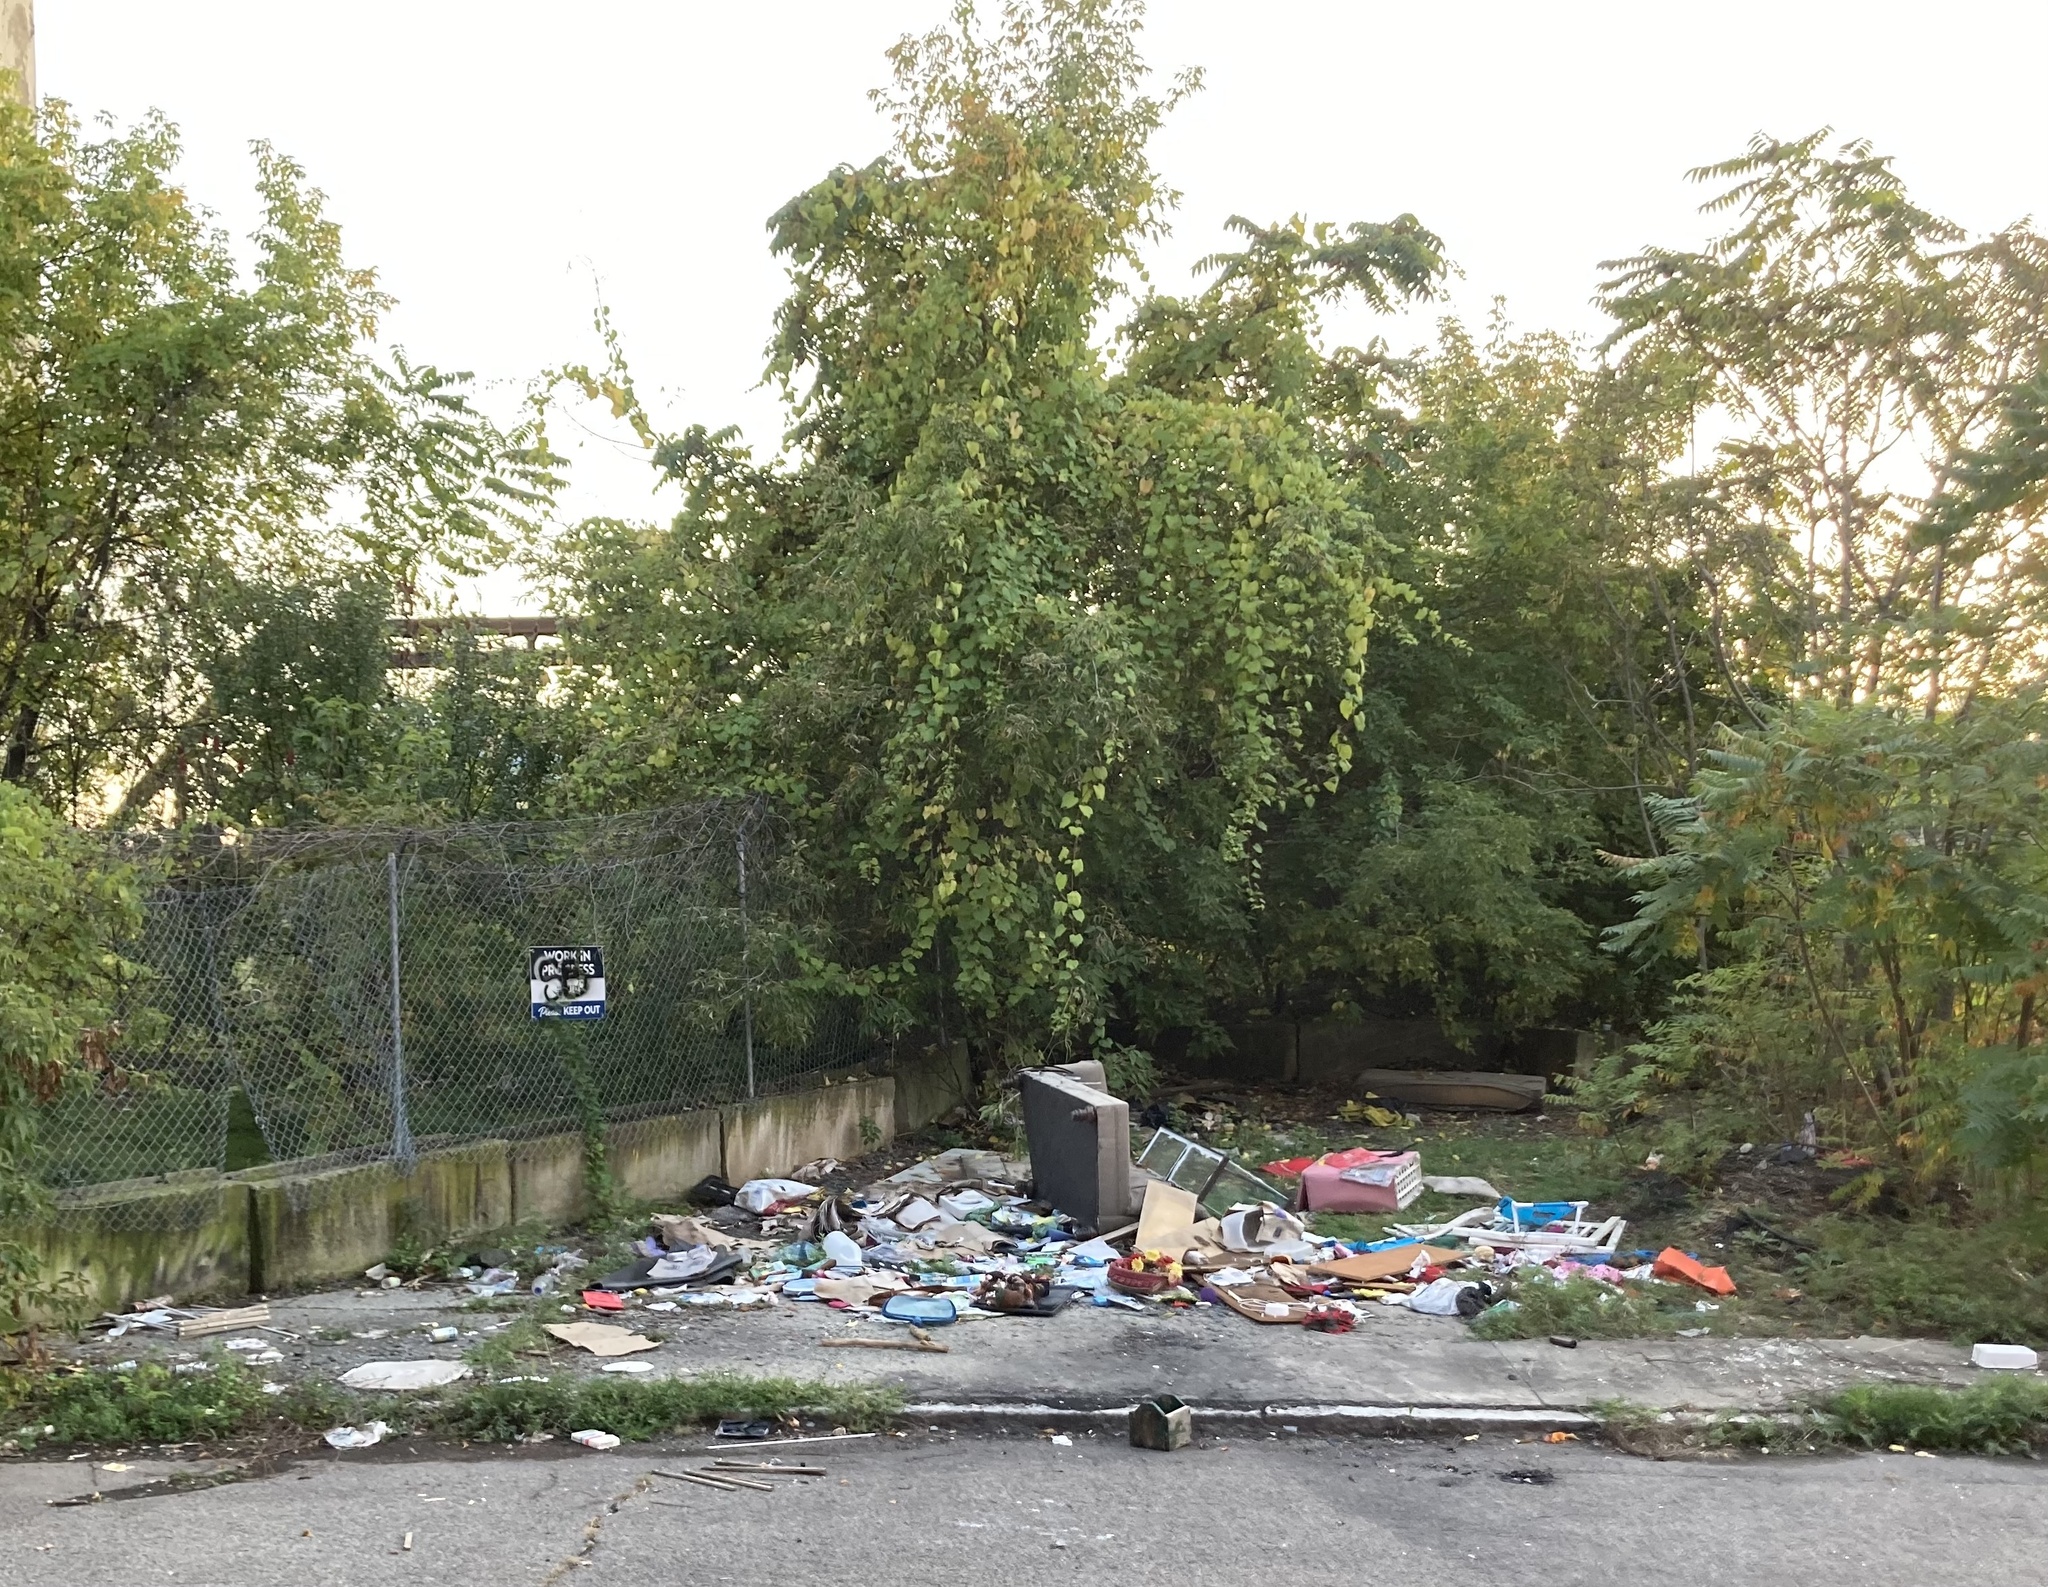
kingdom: Plantae
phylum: Tracheophyta
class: Magnoliopsida
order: Vitales
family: Vitaceae
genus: Vitis
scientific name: Vitis
